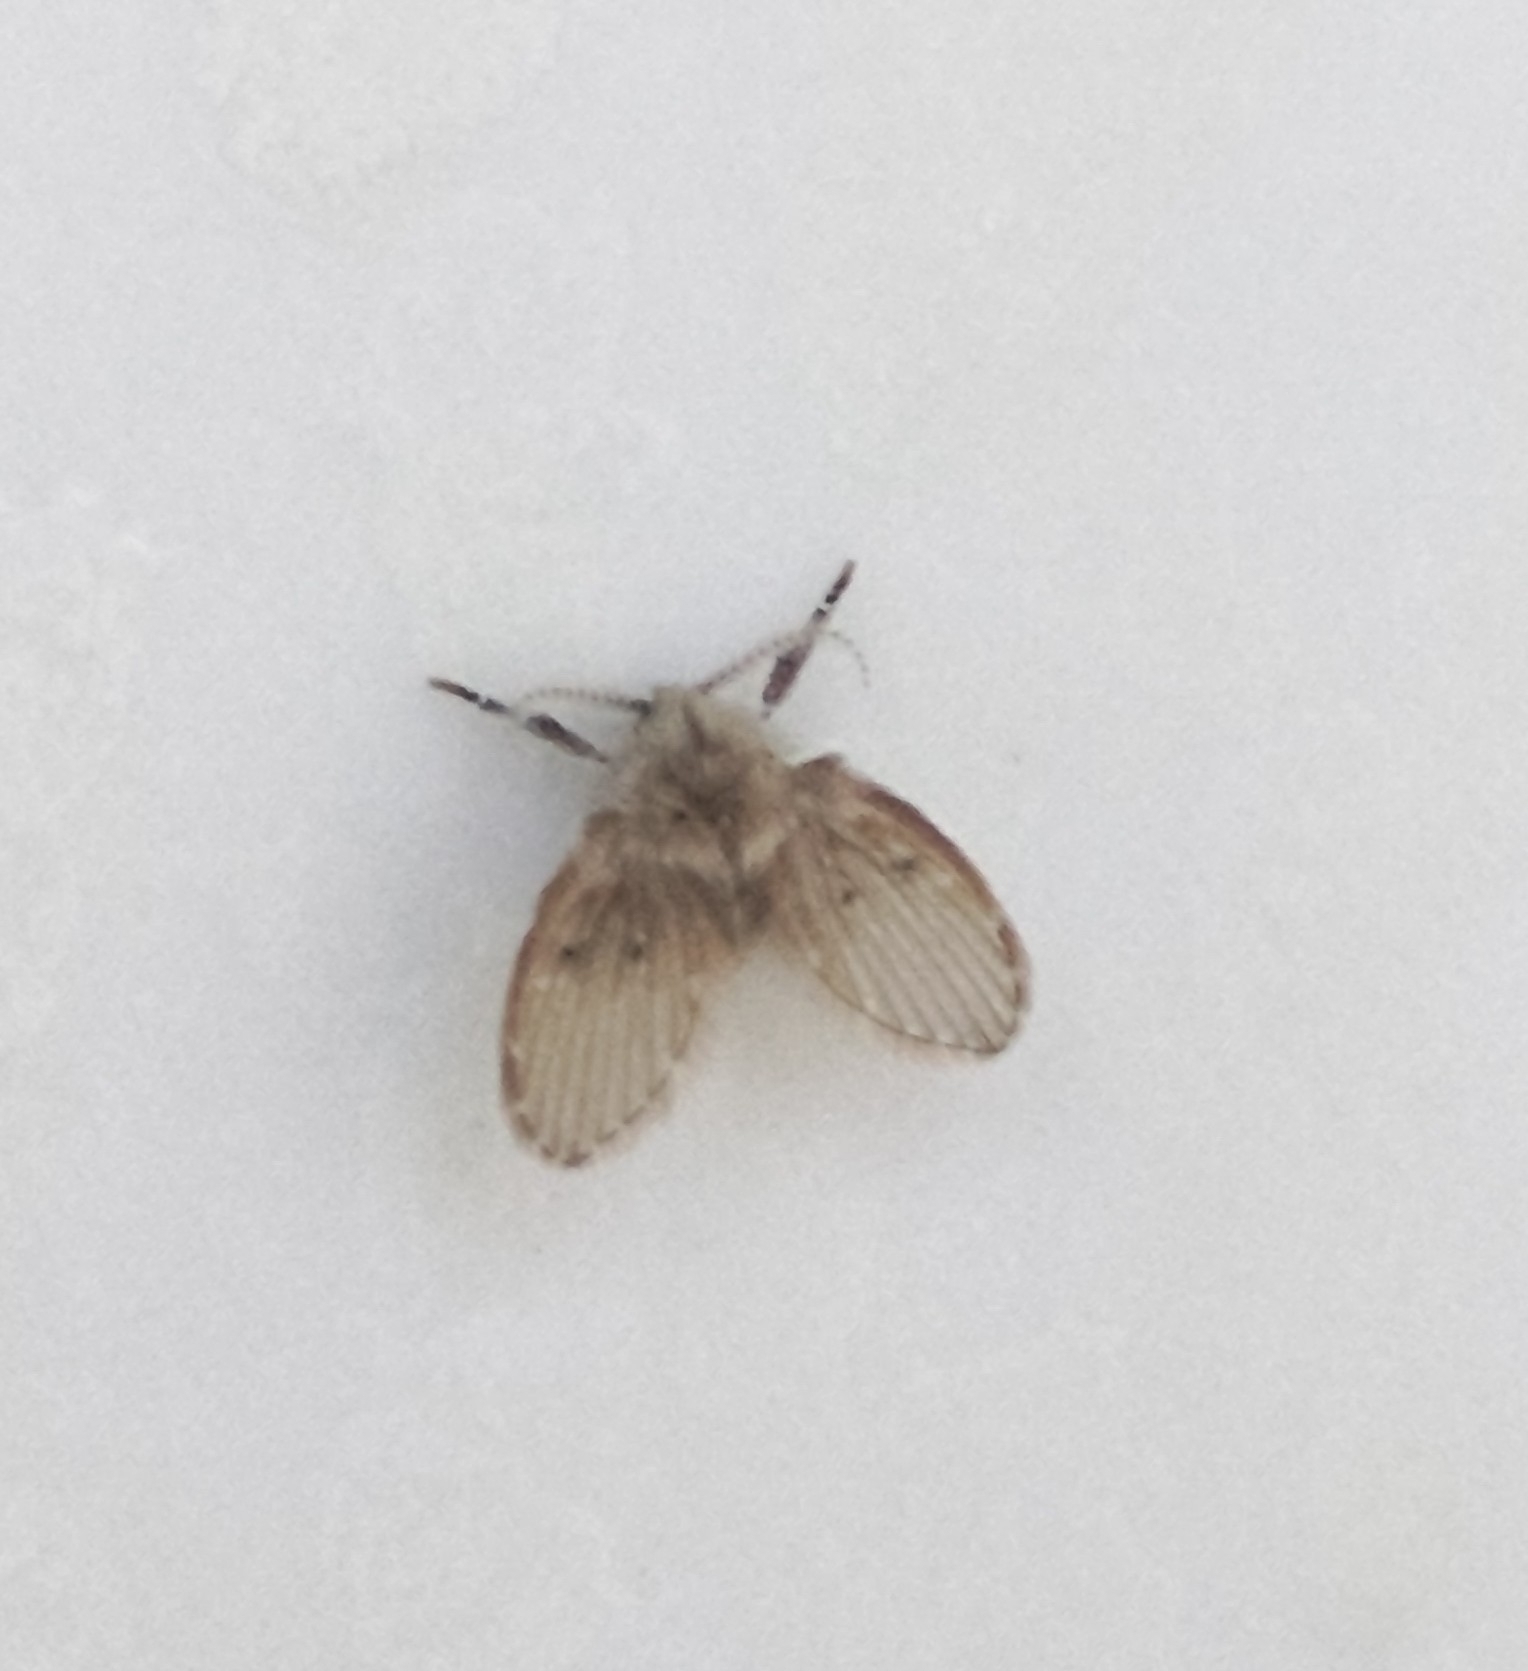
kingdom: Animalia
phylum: Arthropoda
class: Insecta
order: Diptera
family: Psychodidae
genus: Clogmia
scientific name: Clogmia albipunctatus
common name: White-spotted moth fly
